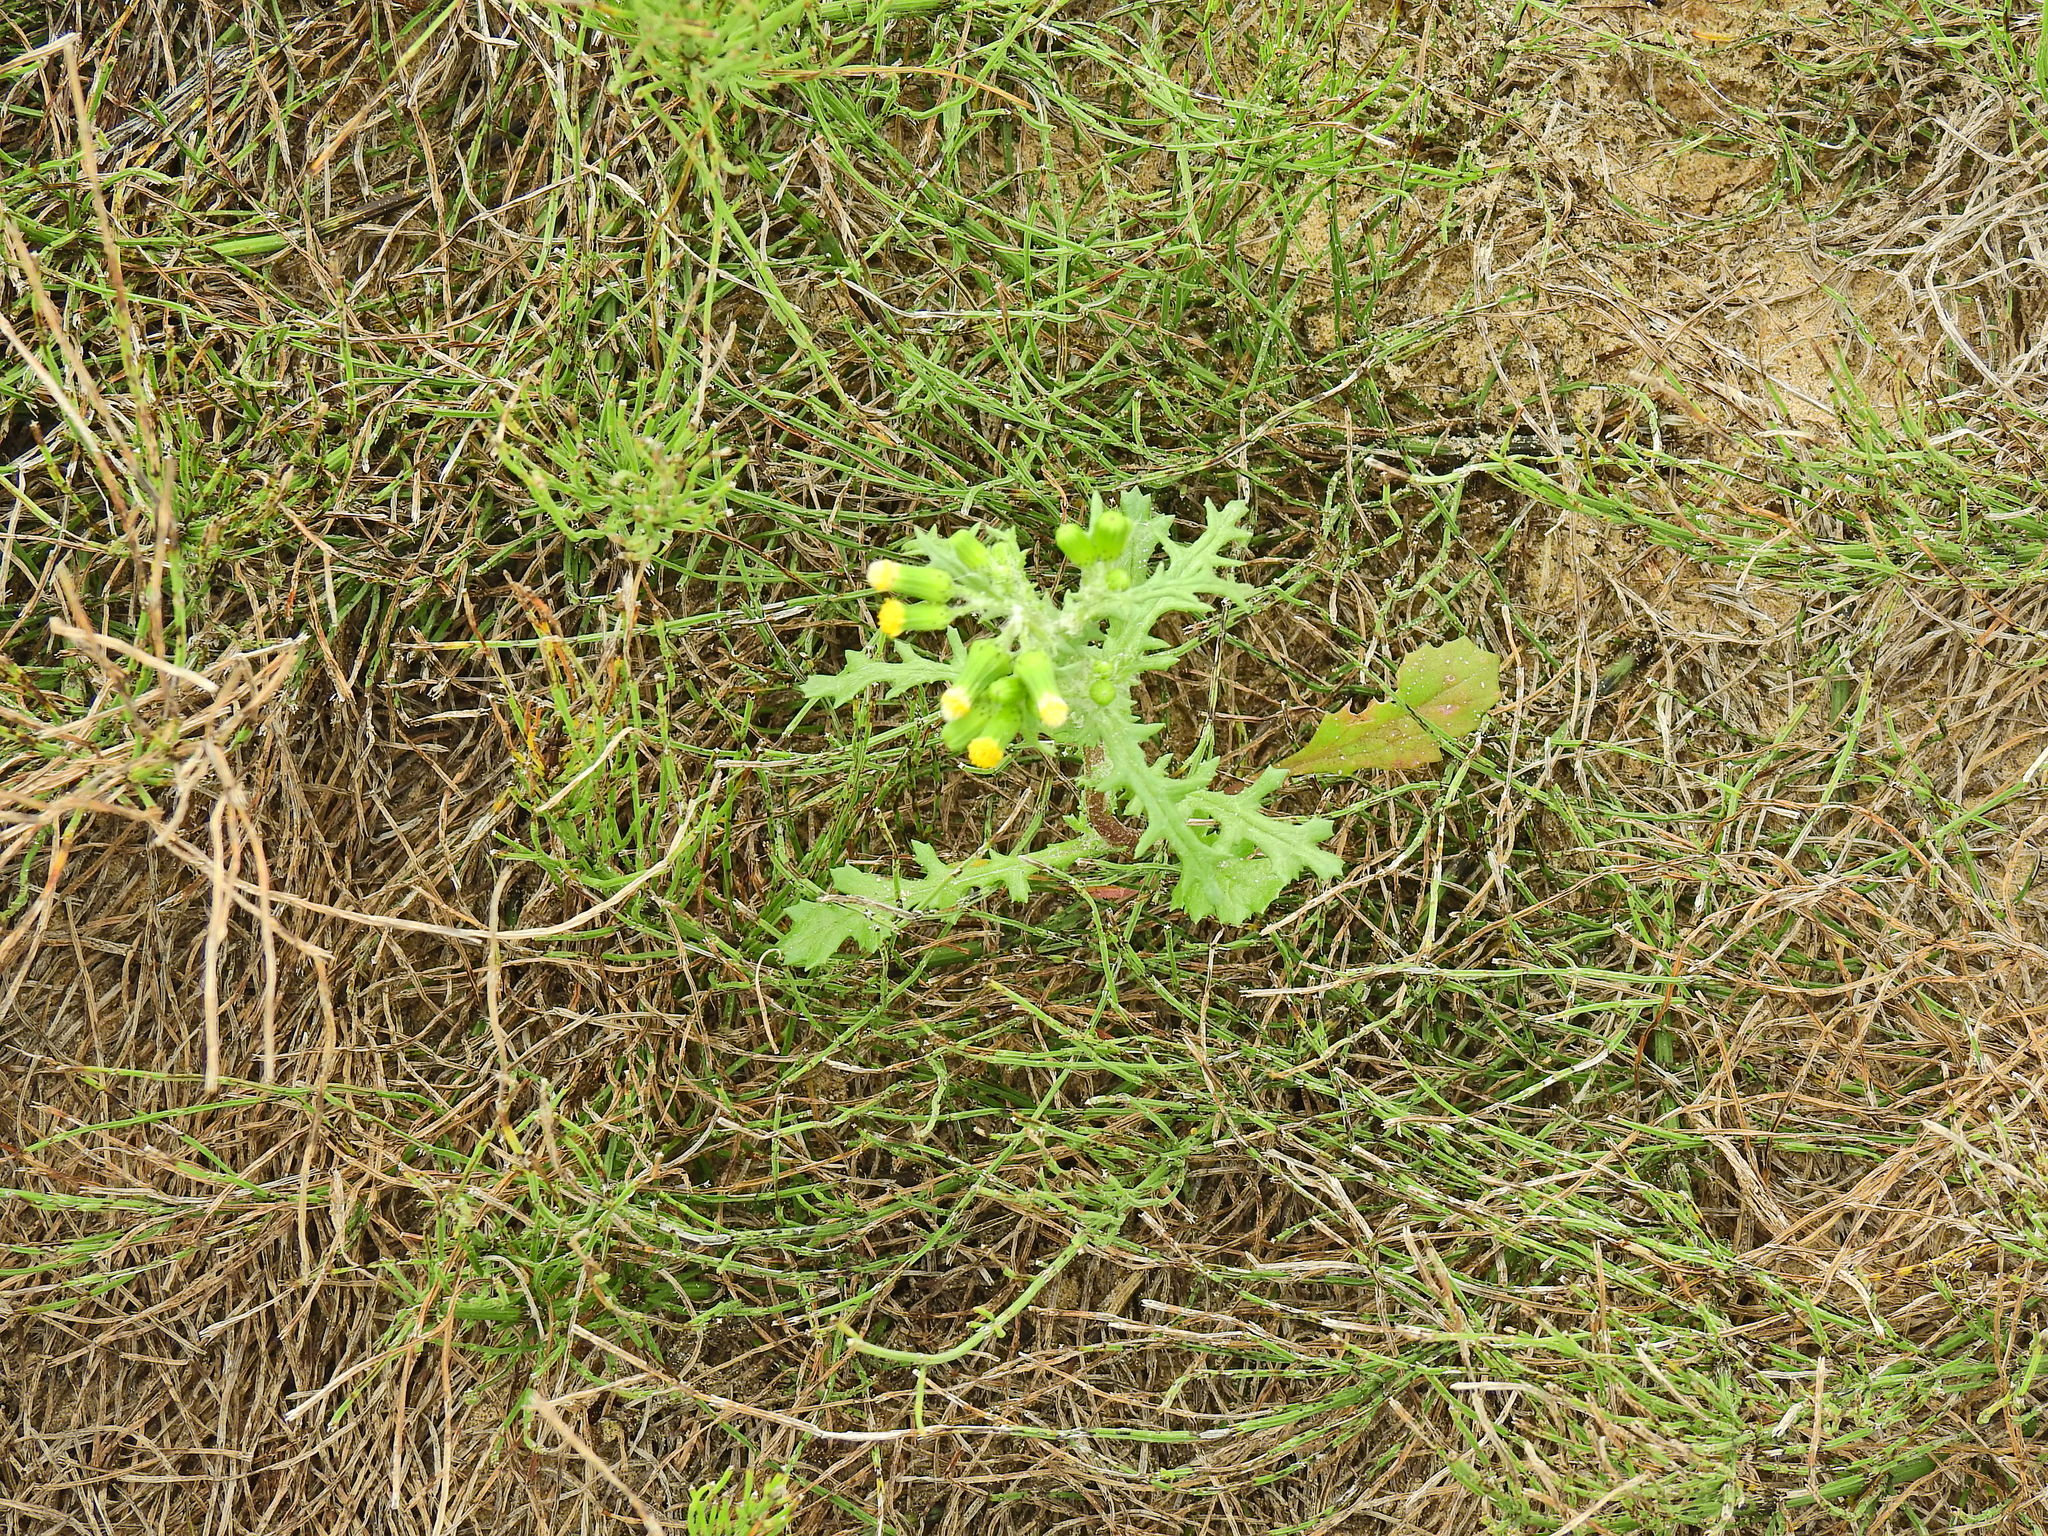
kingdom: Plantae
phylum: Tracheophyta
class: Magnoliopsida
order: Asterales
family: Asteraceae
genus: Senecio
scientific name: Senecio vulgaris
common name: Old-man-in-the-spring
